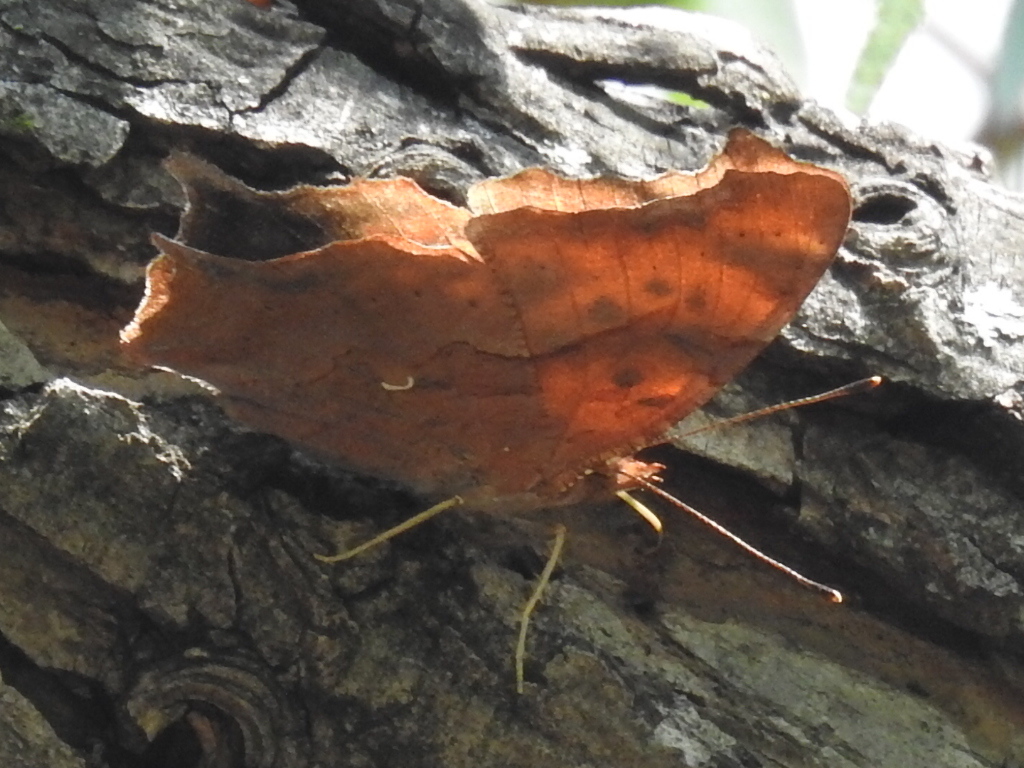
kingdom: Animalia
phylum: Arthropoda
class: Insecta
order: Lepidoptera
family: Nymphalidae
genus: Polygonia
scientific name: Polygonia interrogationis
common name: Question mark
